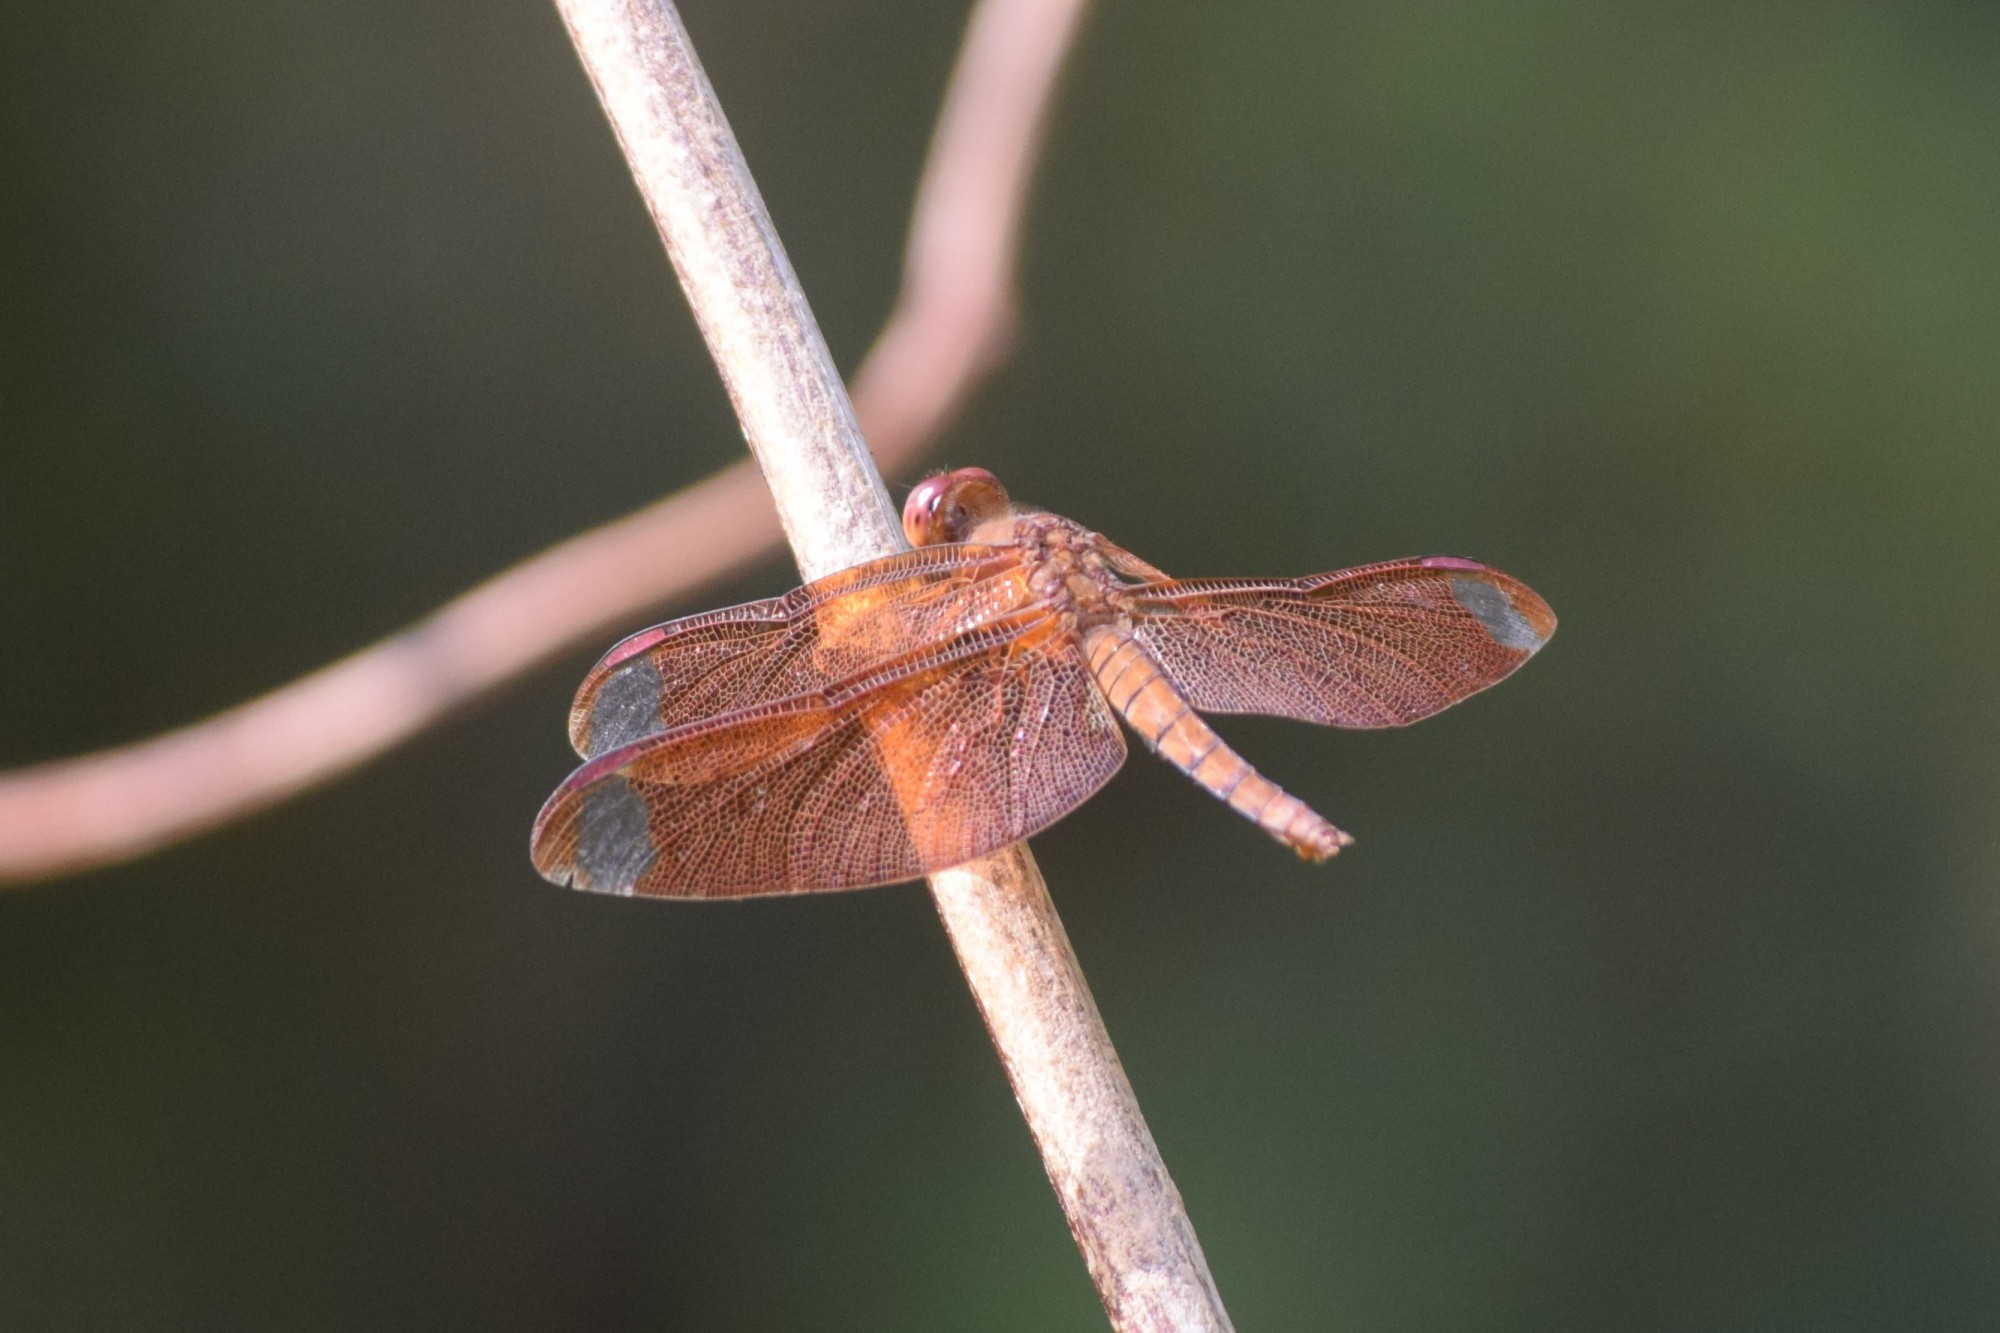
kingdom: Animalia
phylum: Arthropoda
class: Insecta
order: Odonata
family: Libellulidae
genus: Neurothemis
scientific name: Neurothemis fulvia
